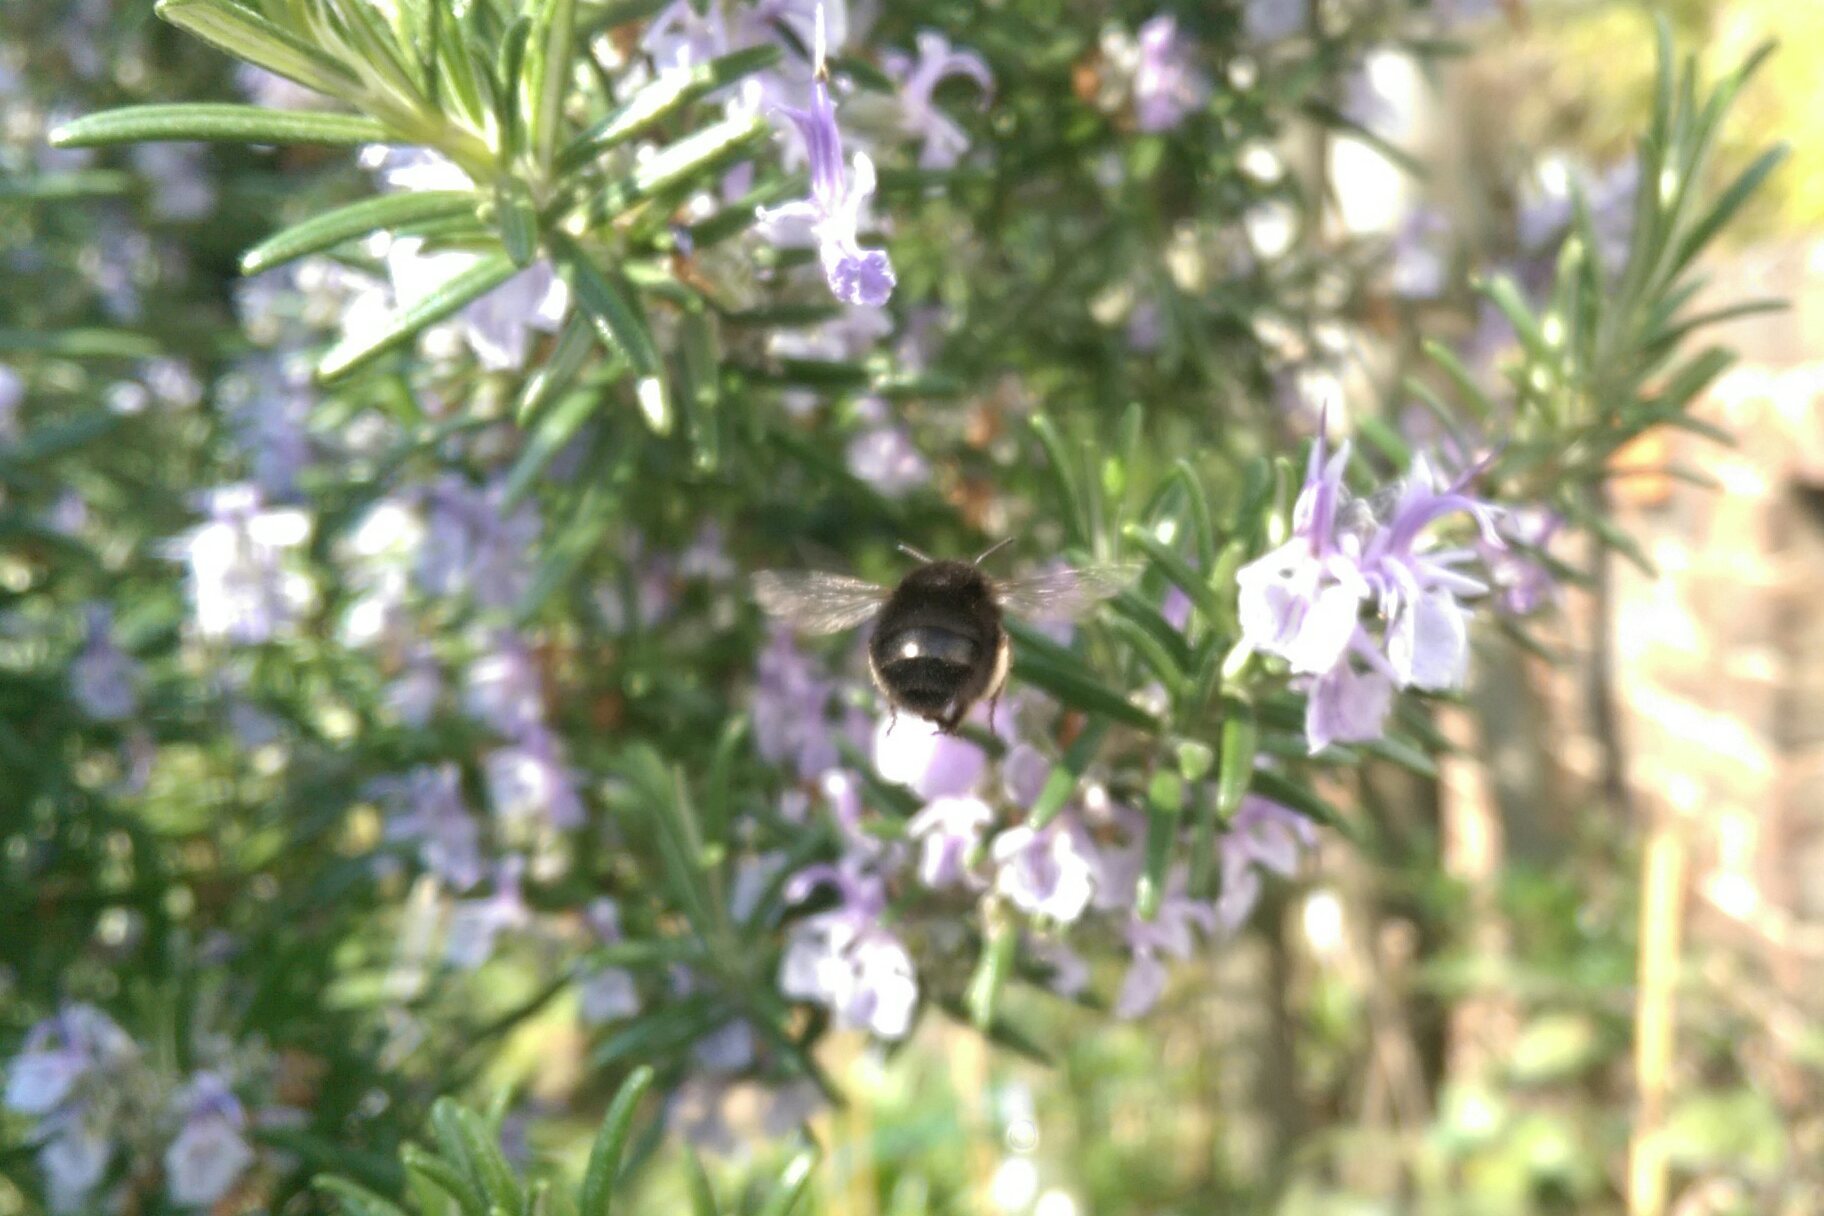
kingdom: Animalia
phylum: Arthropoda
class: Insecta
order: Hymenoptera
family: Apidae
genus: Anthophora
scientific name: Anthophora plumipes
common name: Hairy-footed flower bee
